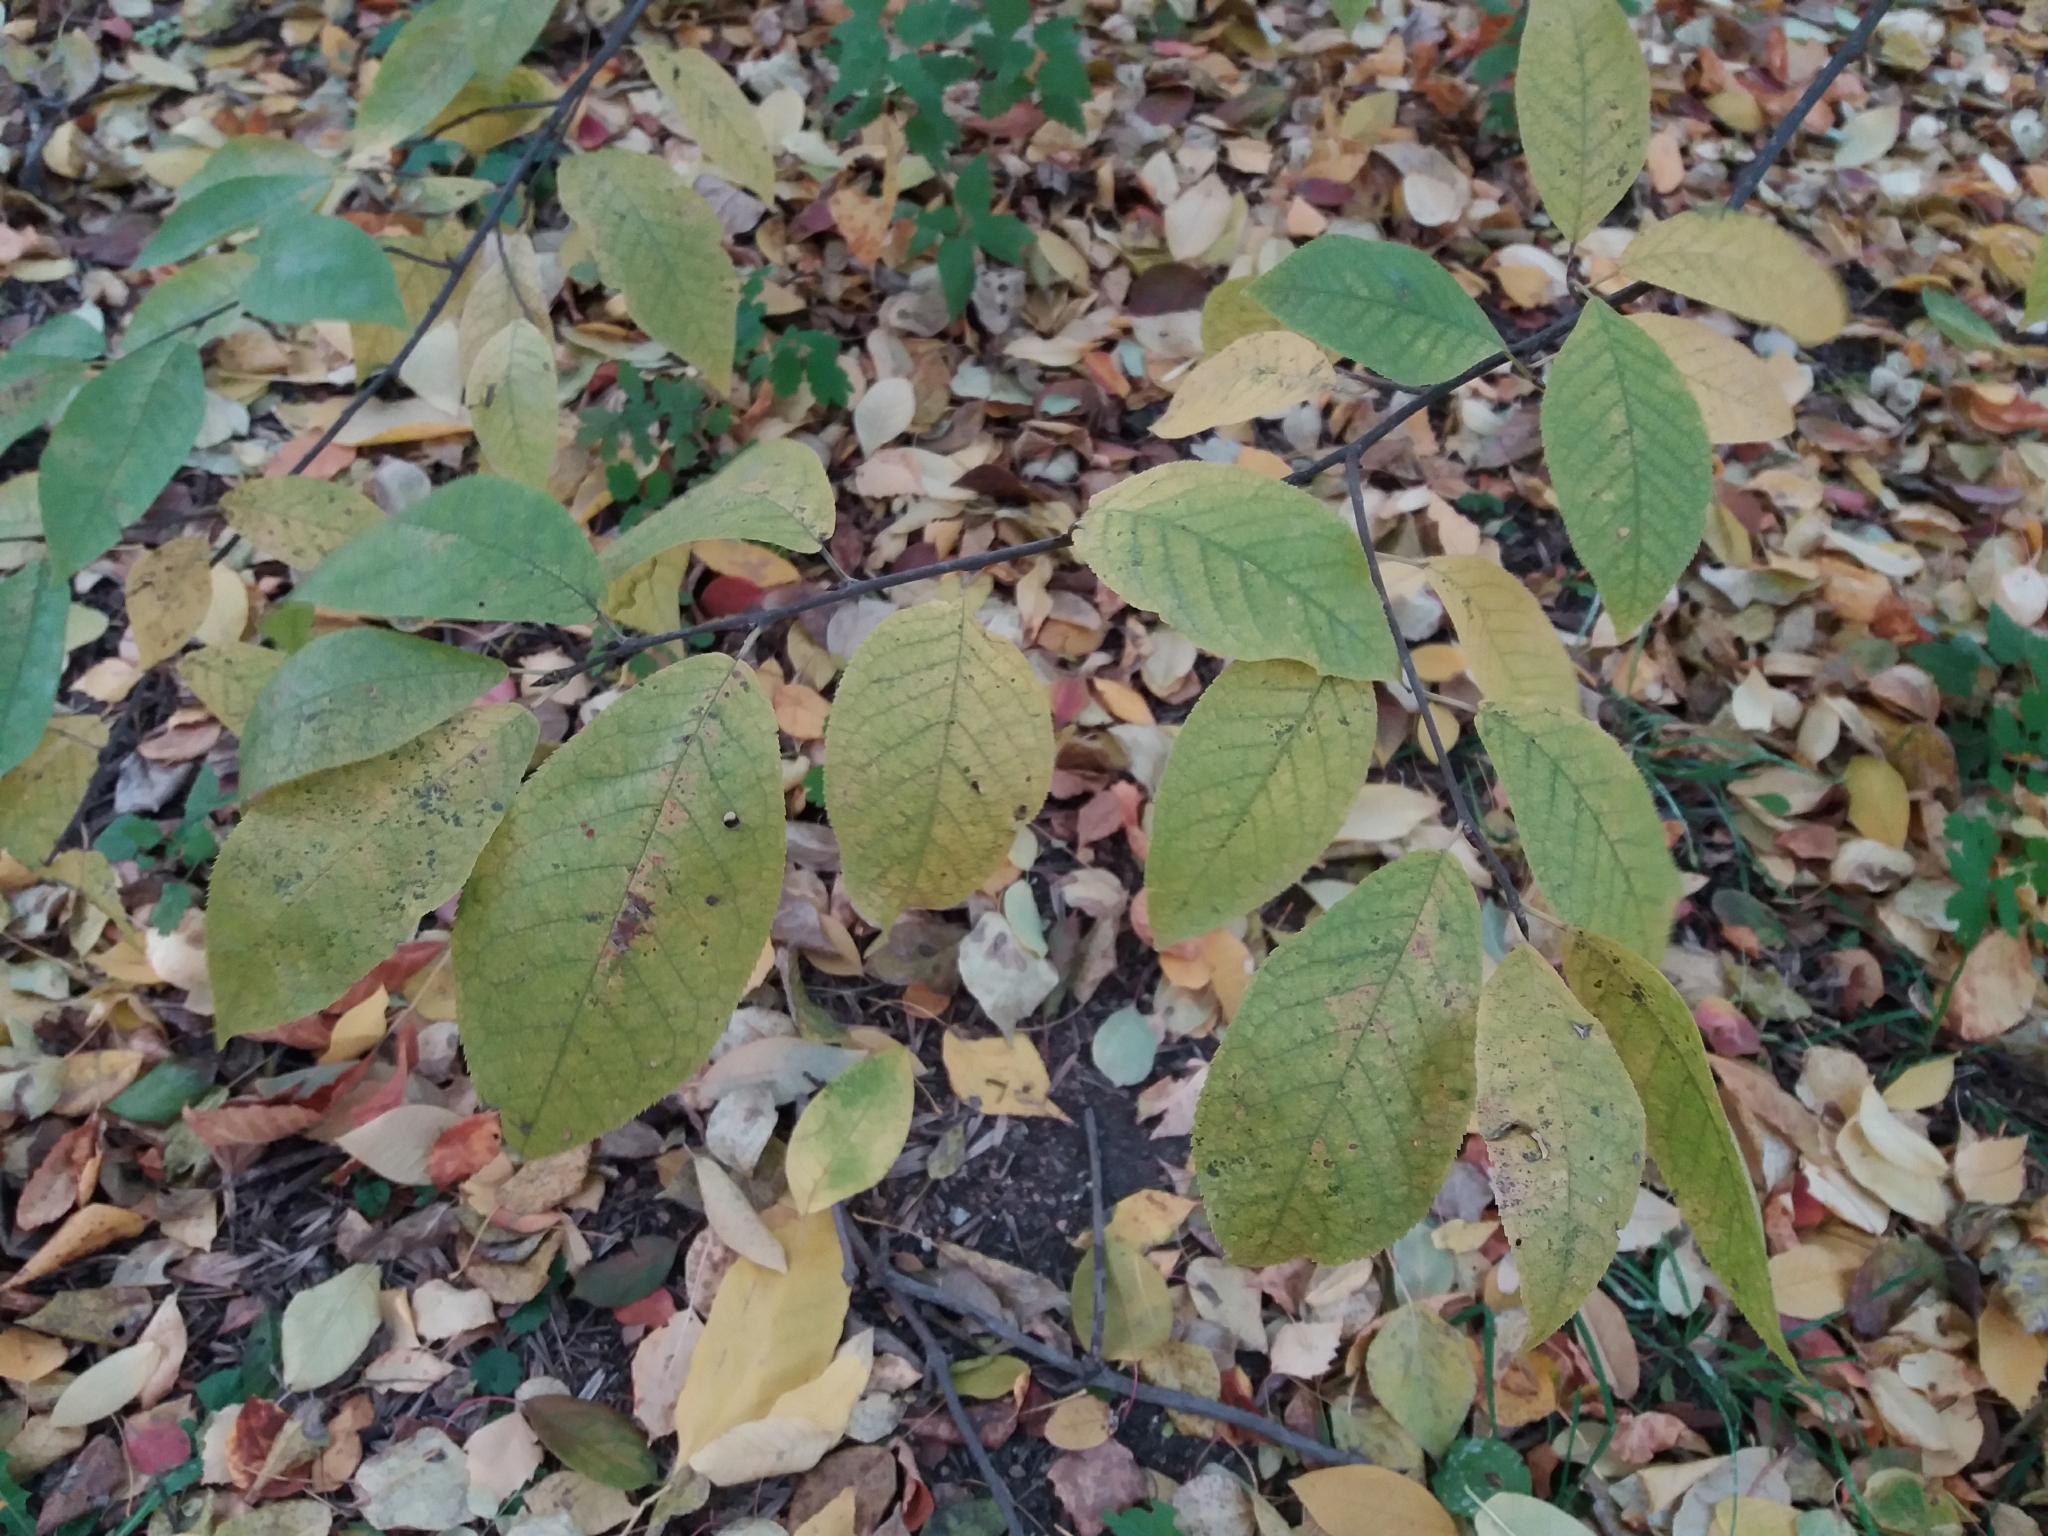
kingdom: Plantae
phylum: Tracheophyta
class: Magnoliopsida
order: Rosales
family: Rosaceae
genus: Prunus
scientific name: Prunus padus
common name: Bird cherry
